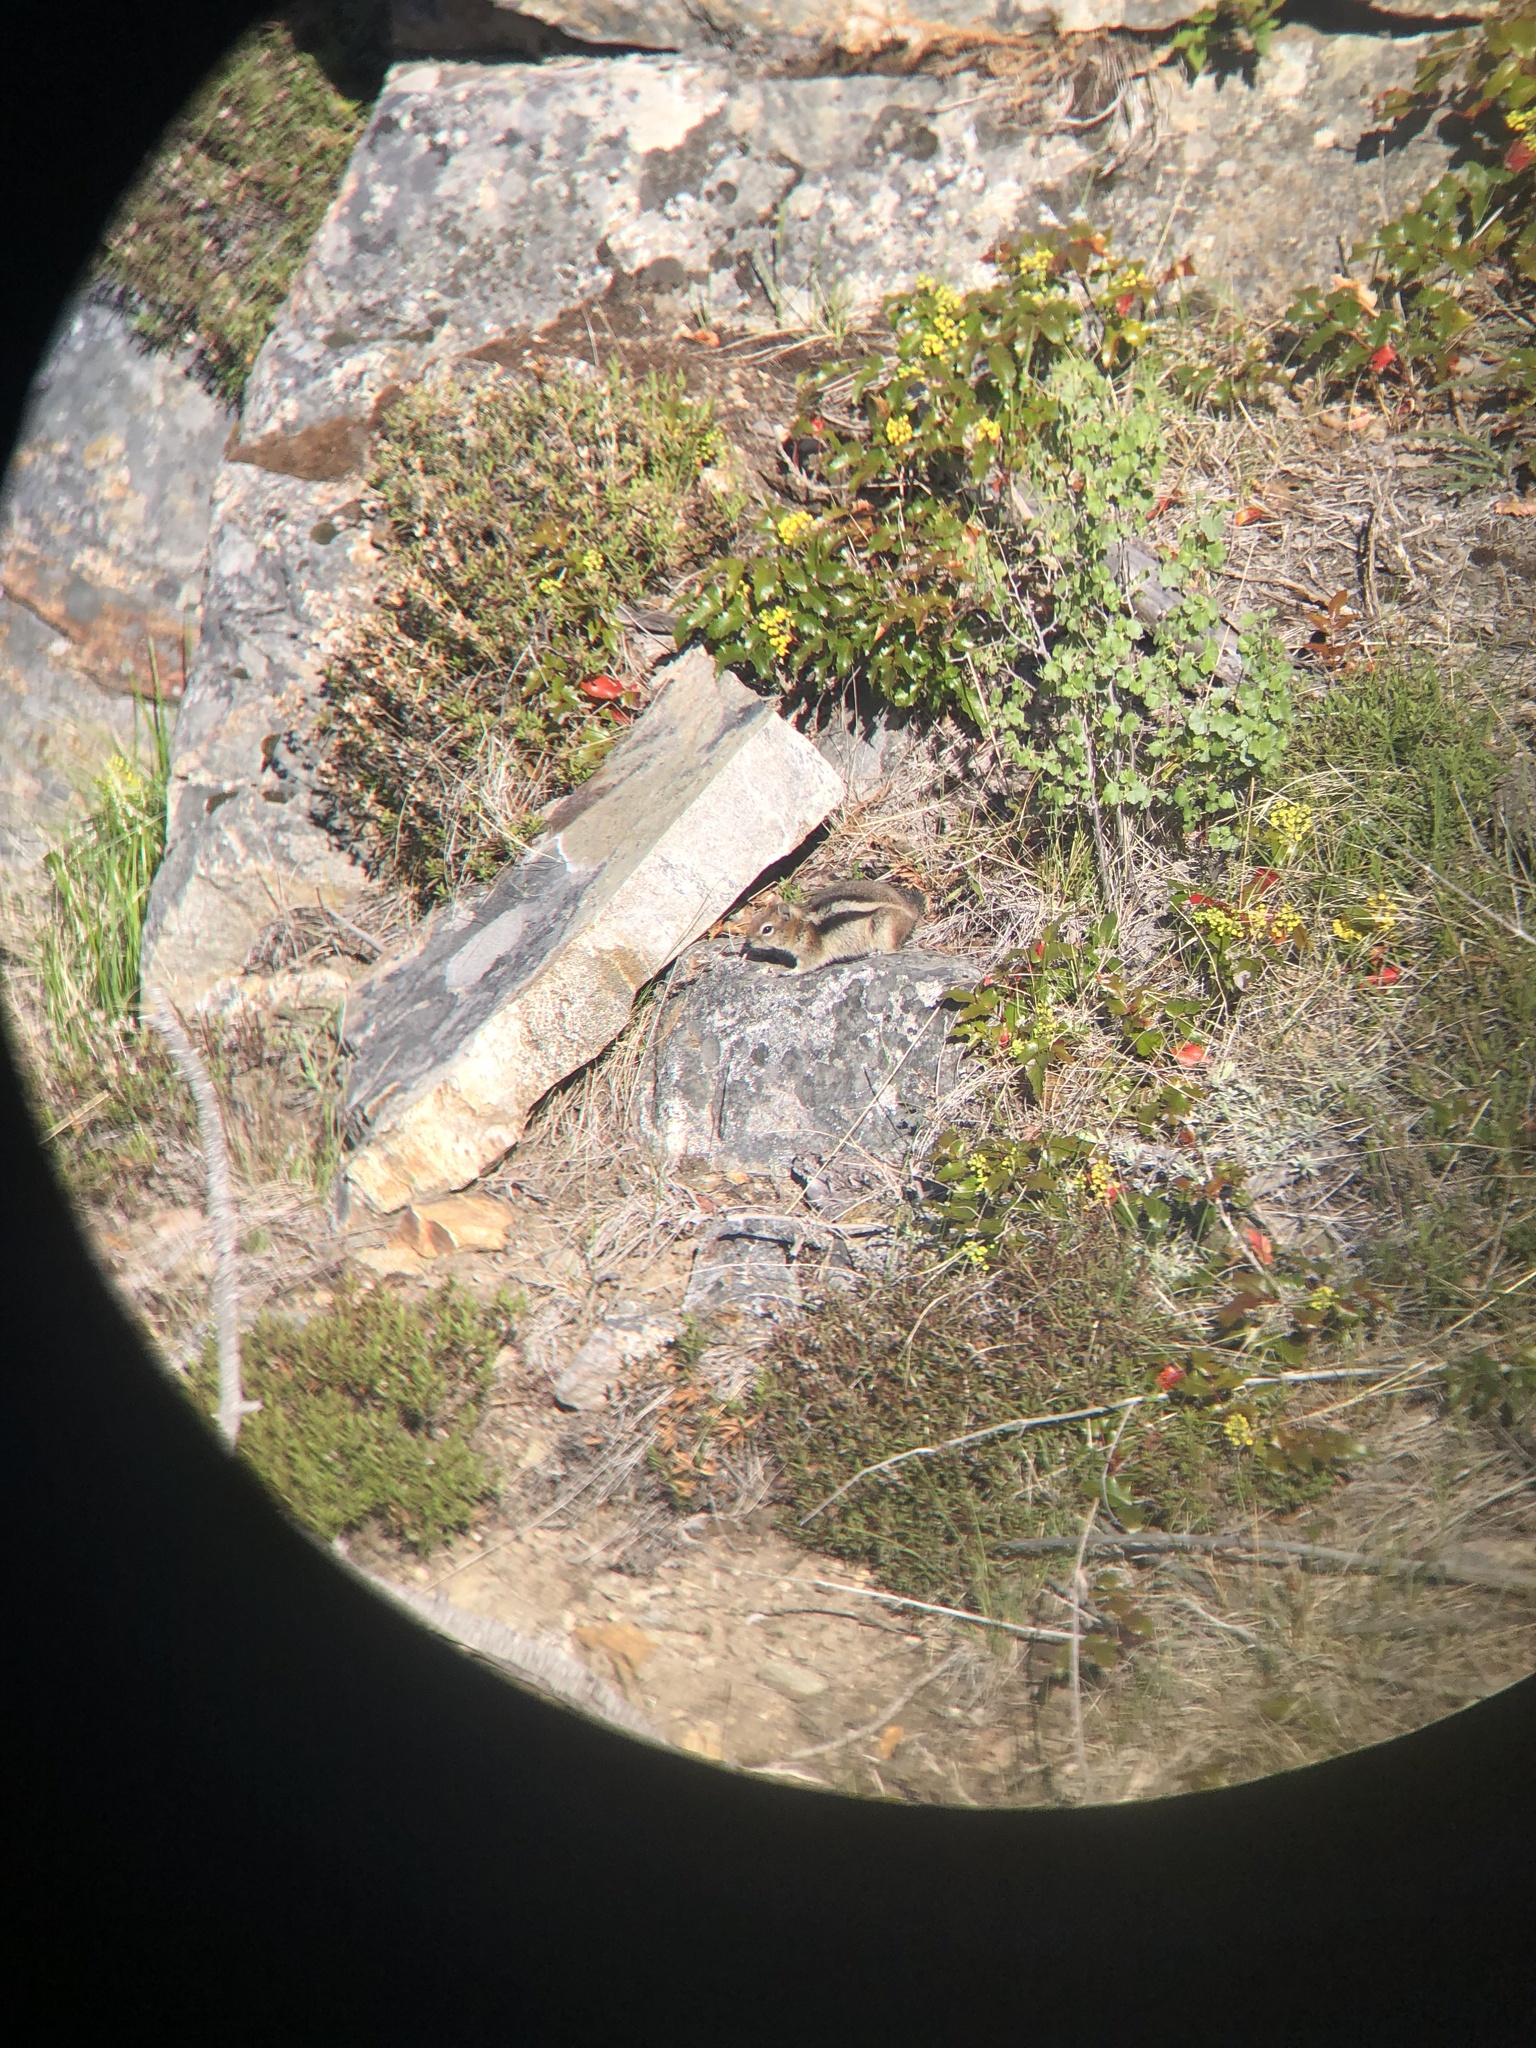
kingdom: Animalia
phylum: Chordata
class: Mammalia
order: Rodentia
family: Sciuridae
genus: Callospermophilus
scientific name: Callospermophilus lateralis
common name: Golden-mantled ground squirrel
